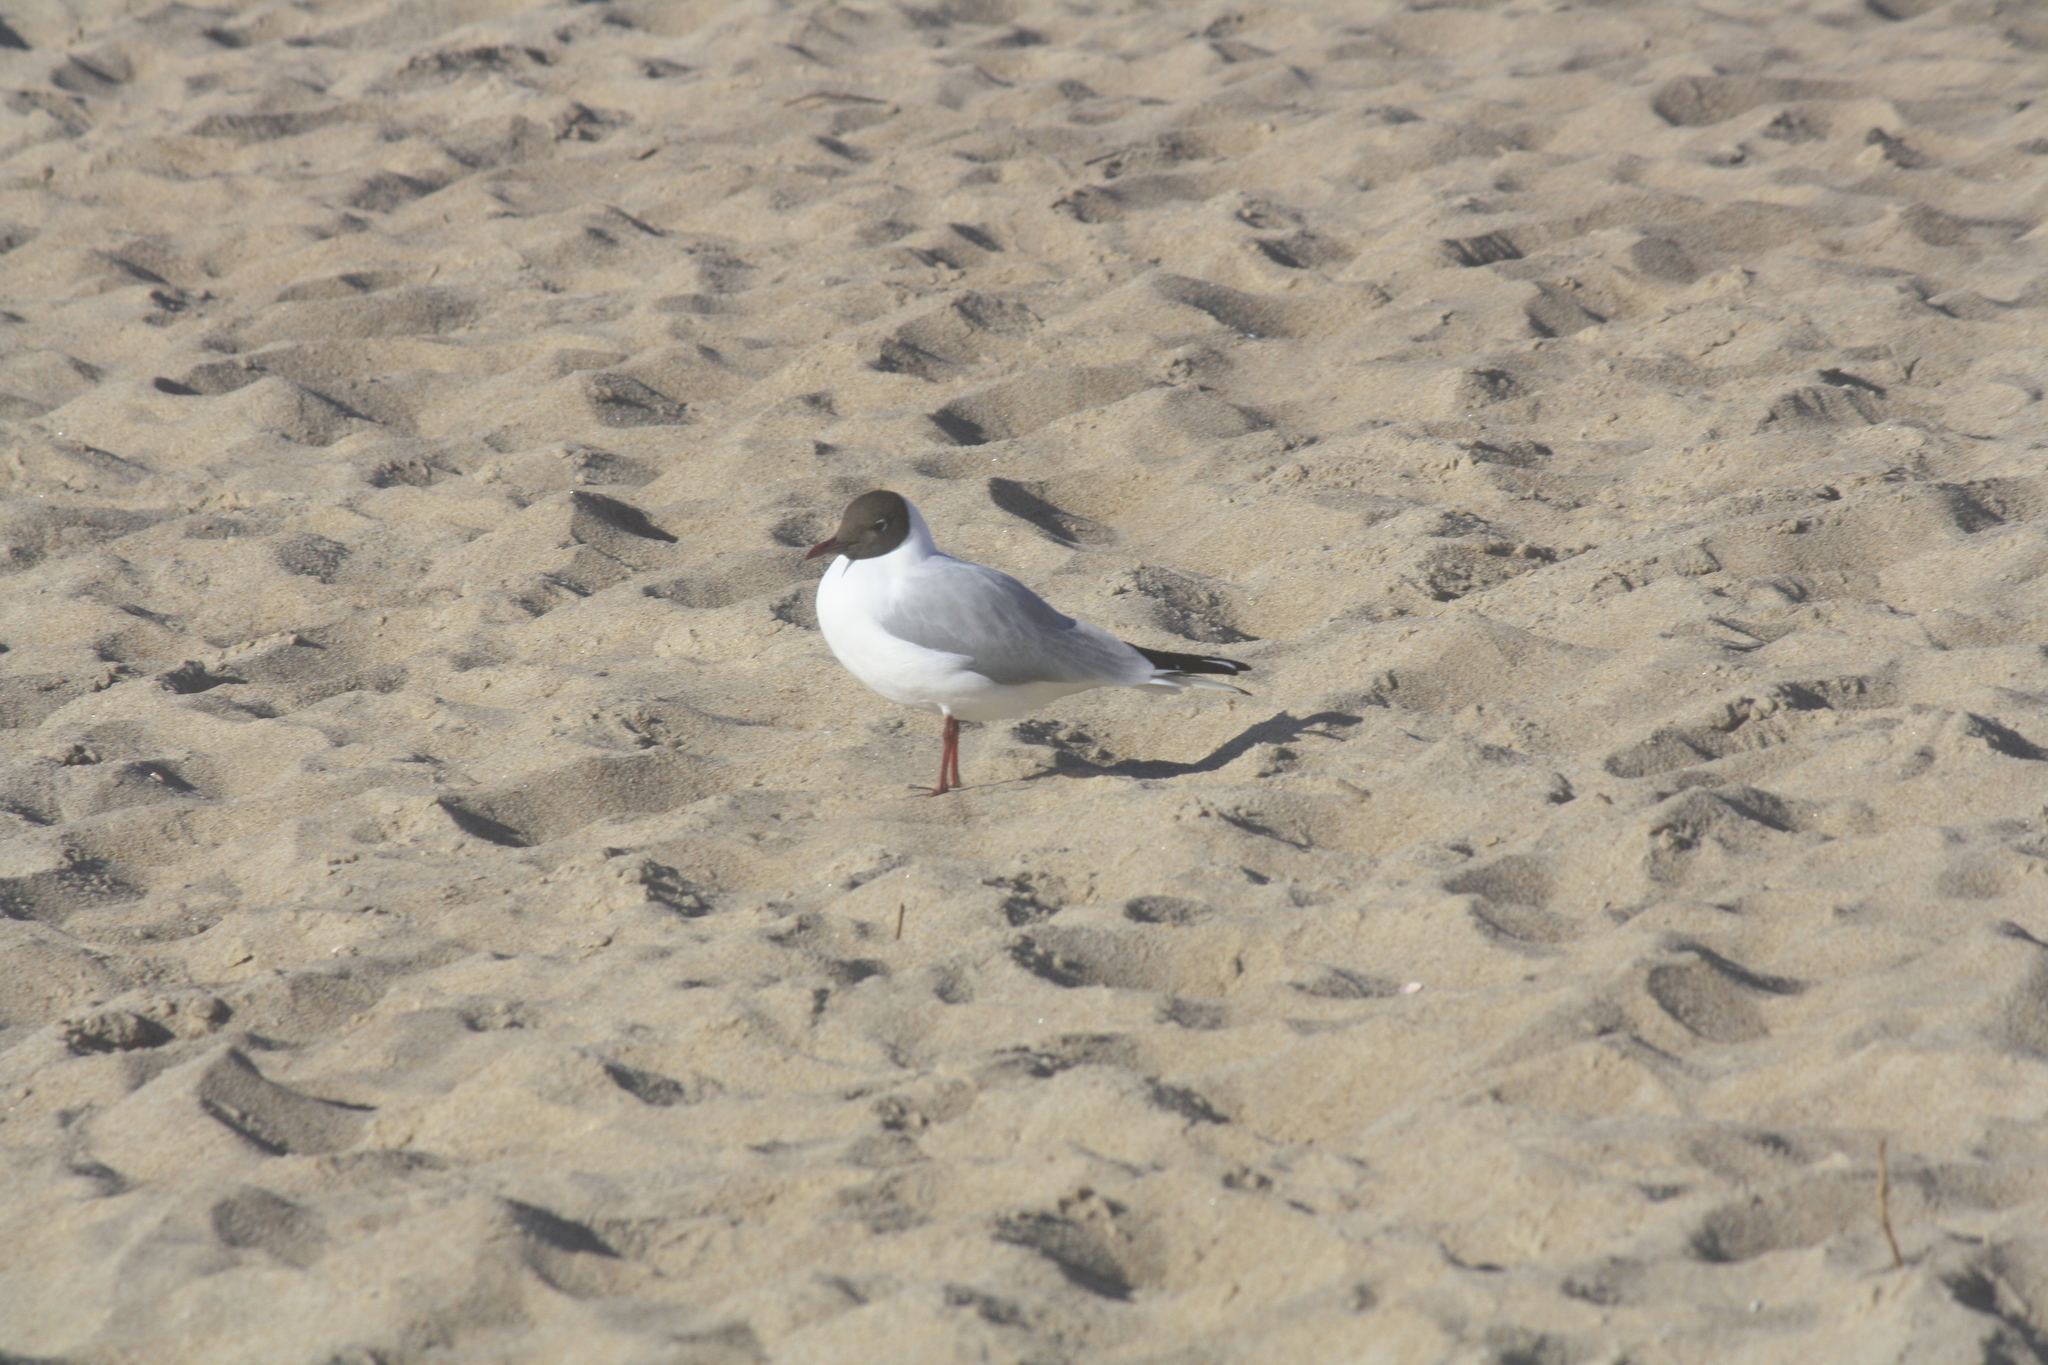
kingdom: Animalia
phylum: Chordata
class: Aves
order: Charadriiformes
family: Laridae
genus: Chroicocephalus
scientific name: Chroicocephalus ridibundus
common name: Black-headed gull
